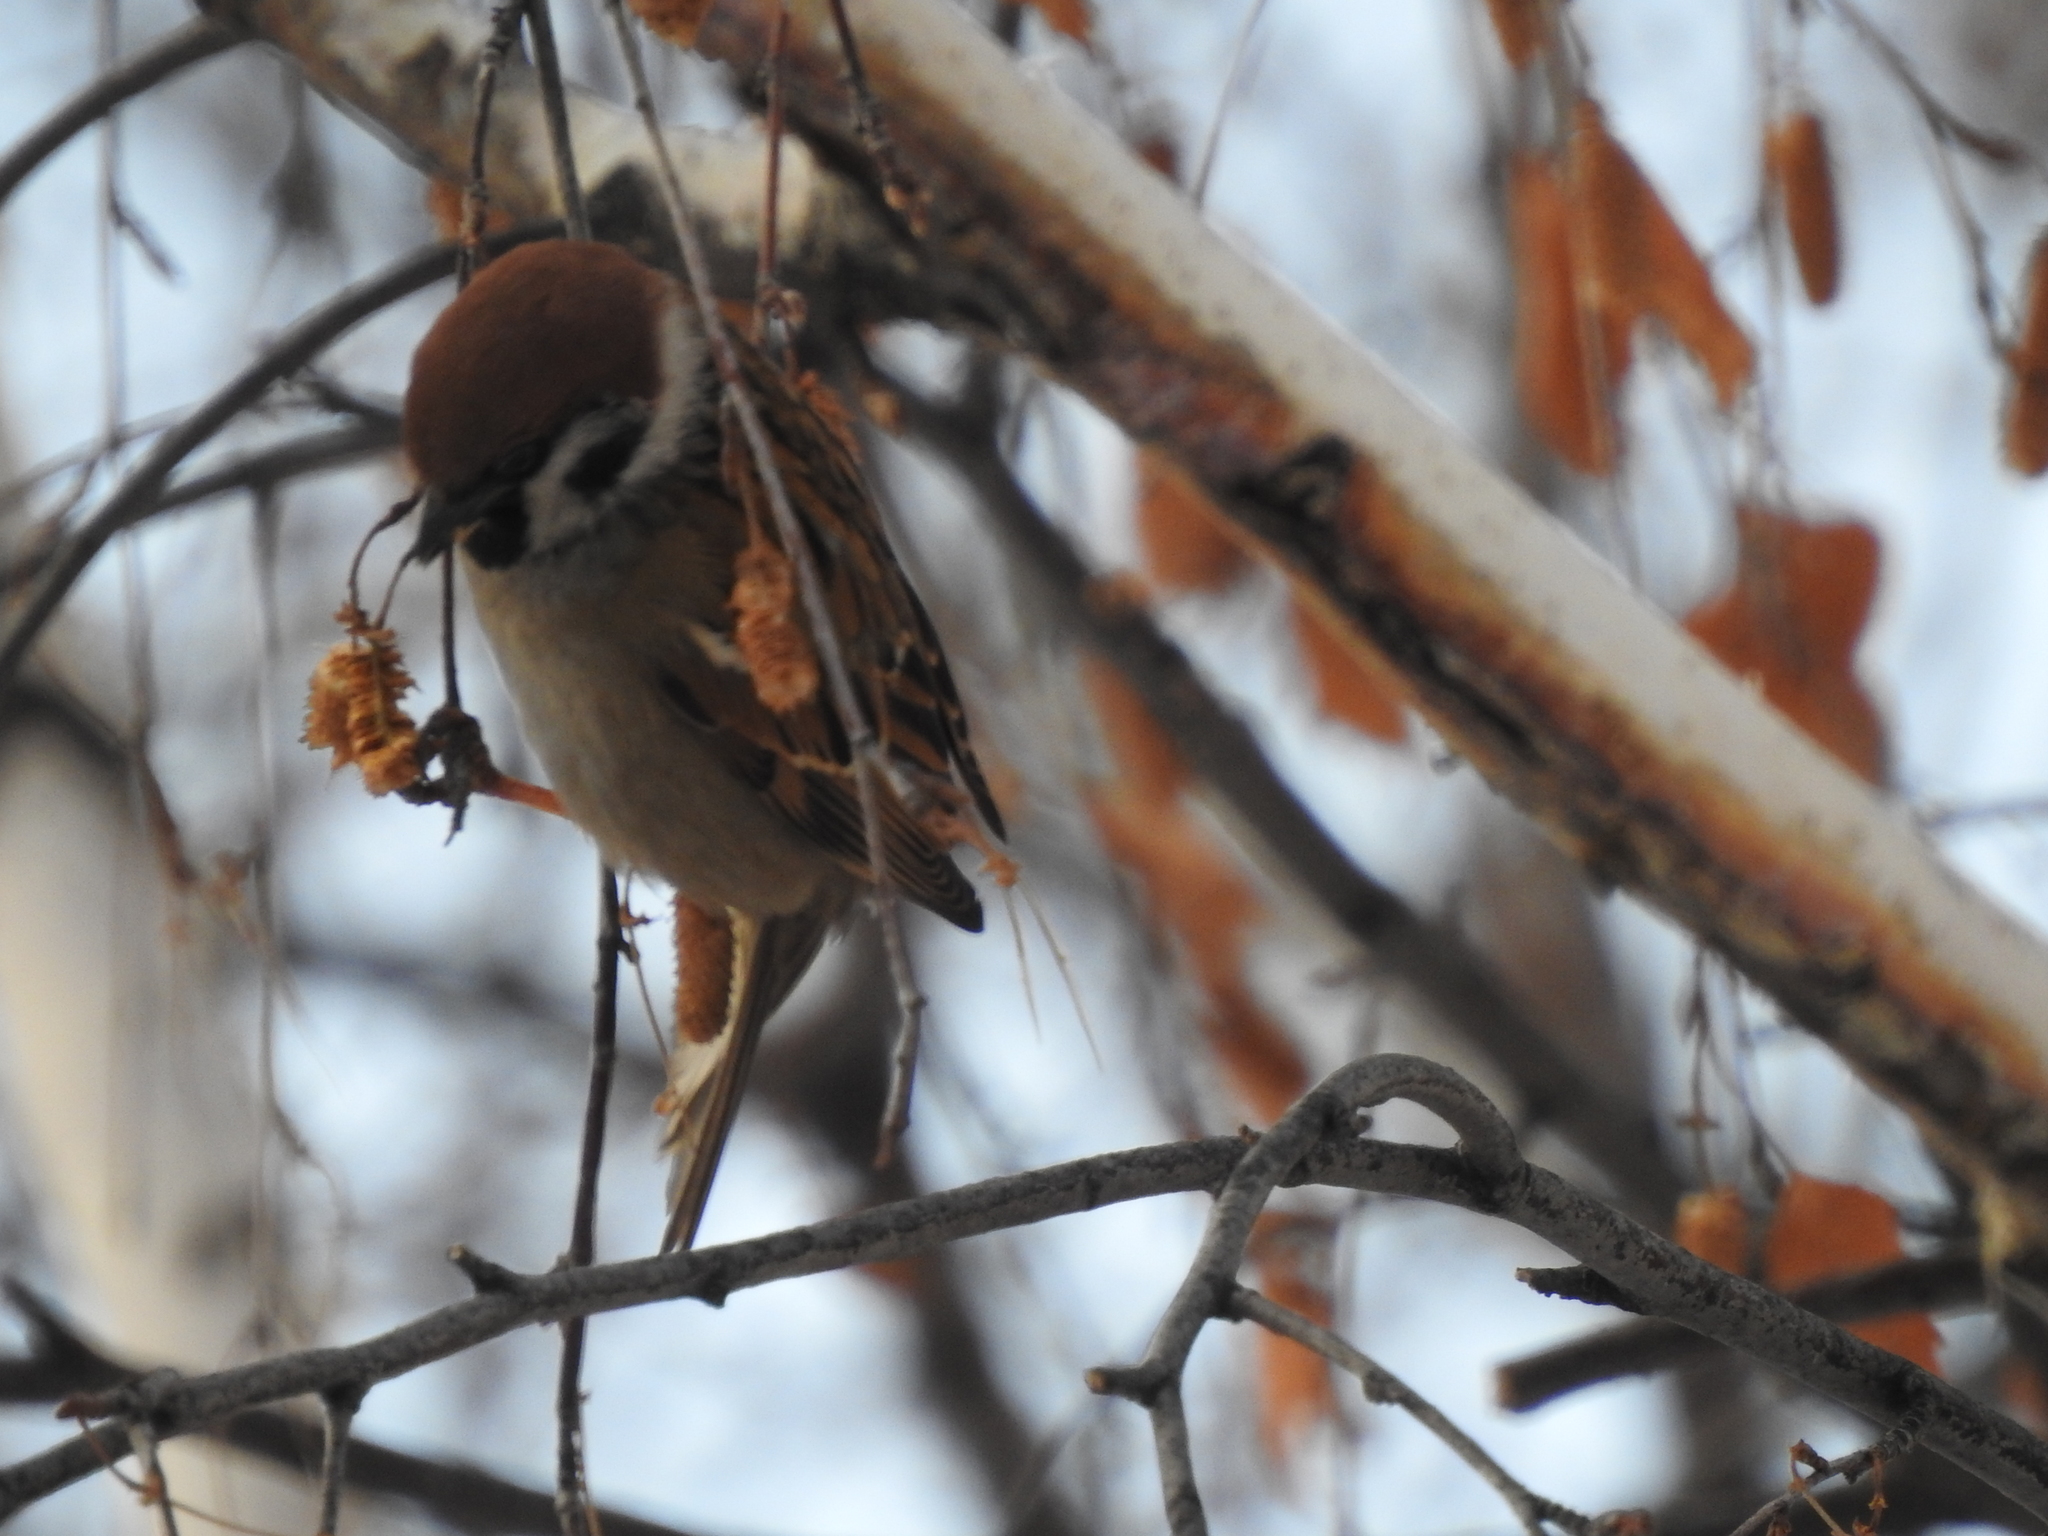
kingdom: Animalia
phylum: Chordata
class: Aves
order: Passeriformes
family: Passeridae
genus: Passer
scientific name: Passer montanus
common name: Eurasian tree sparrow
